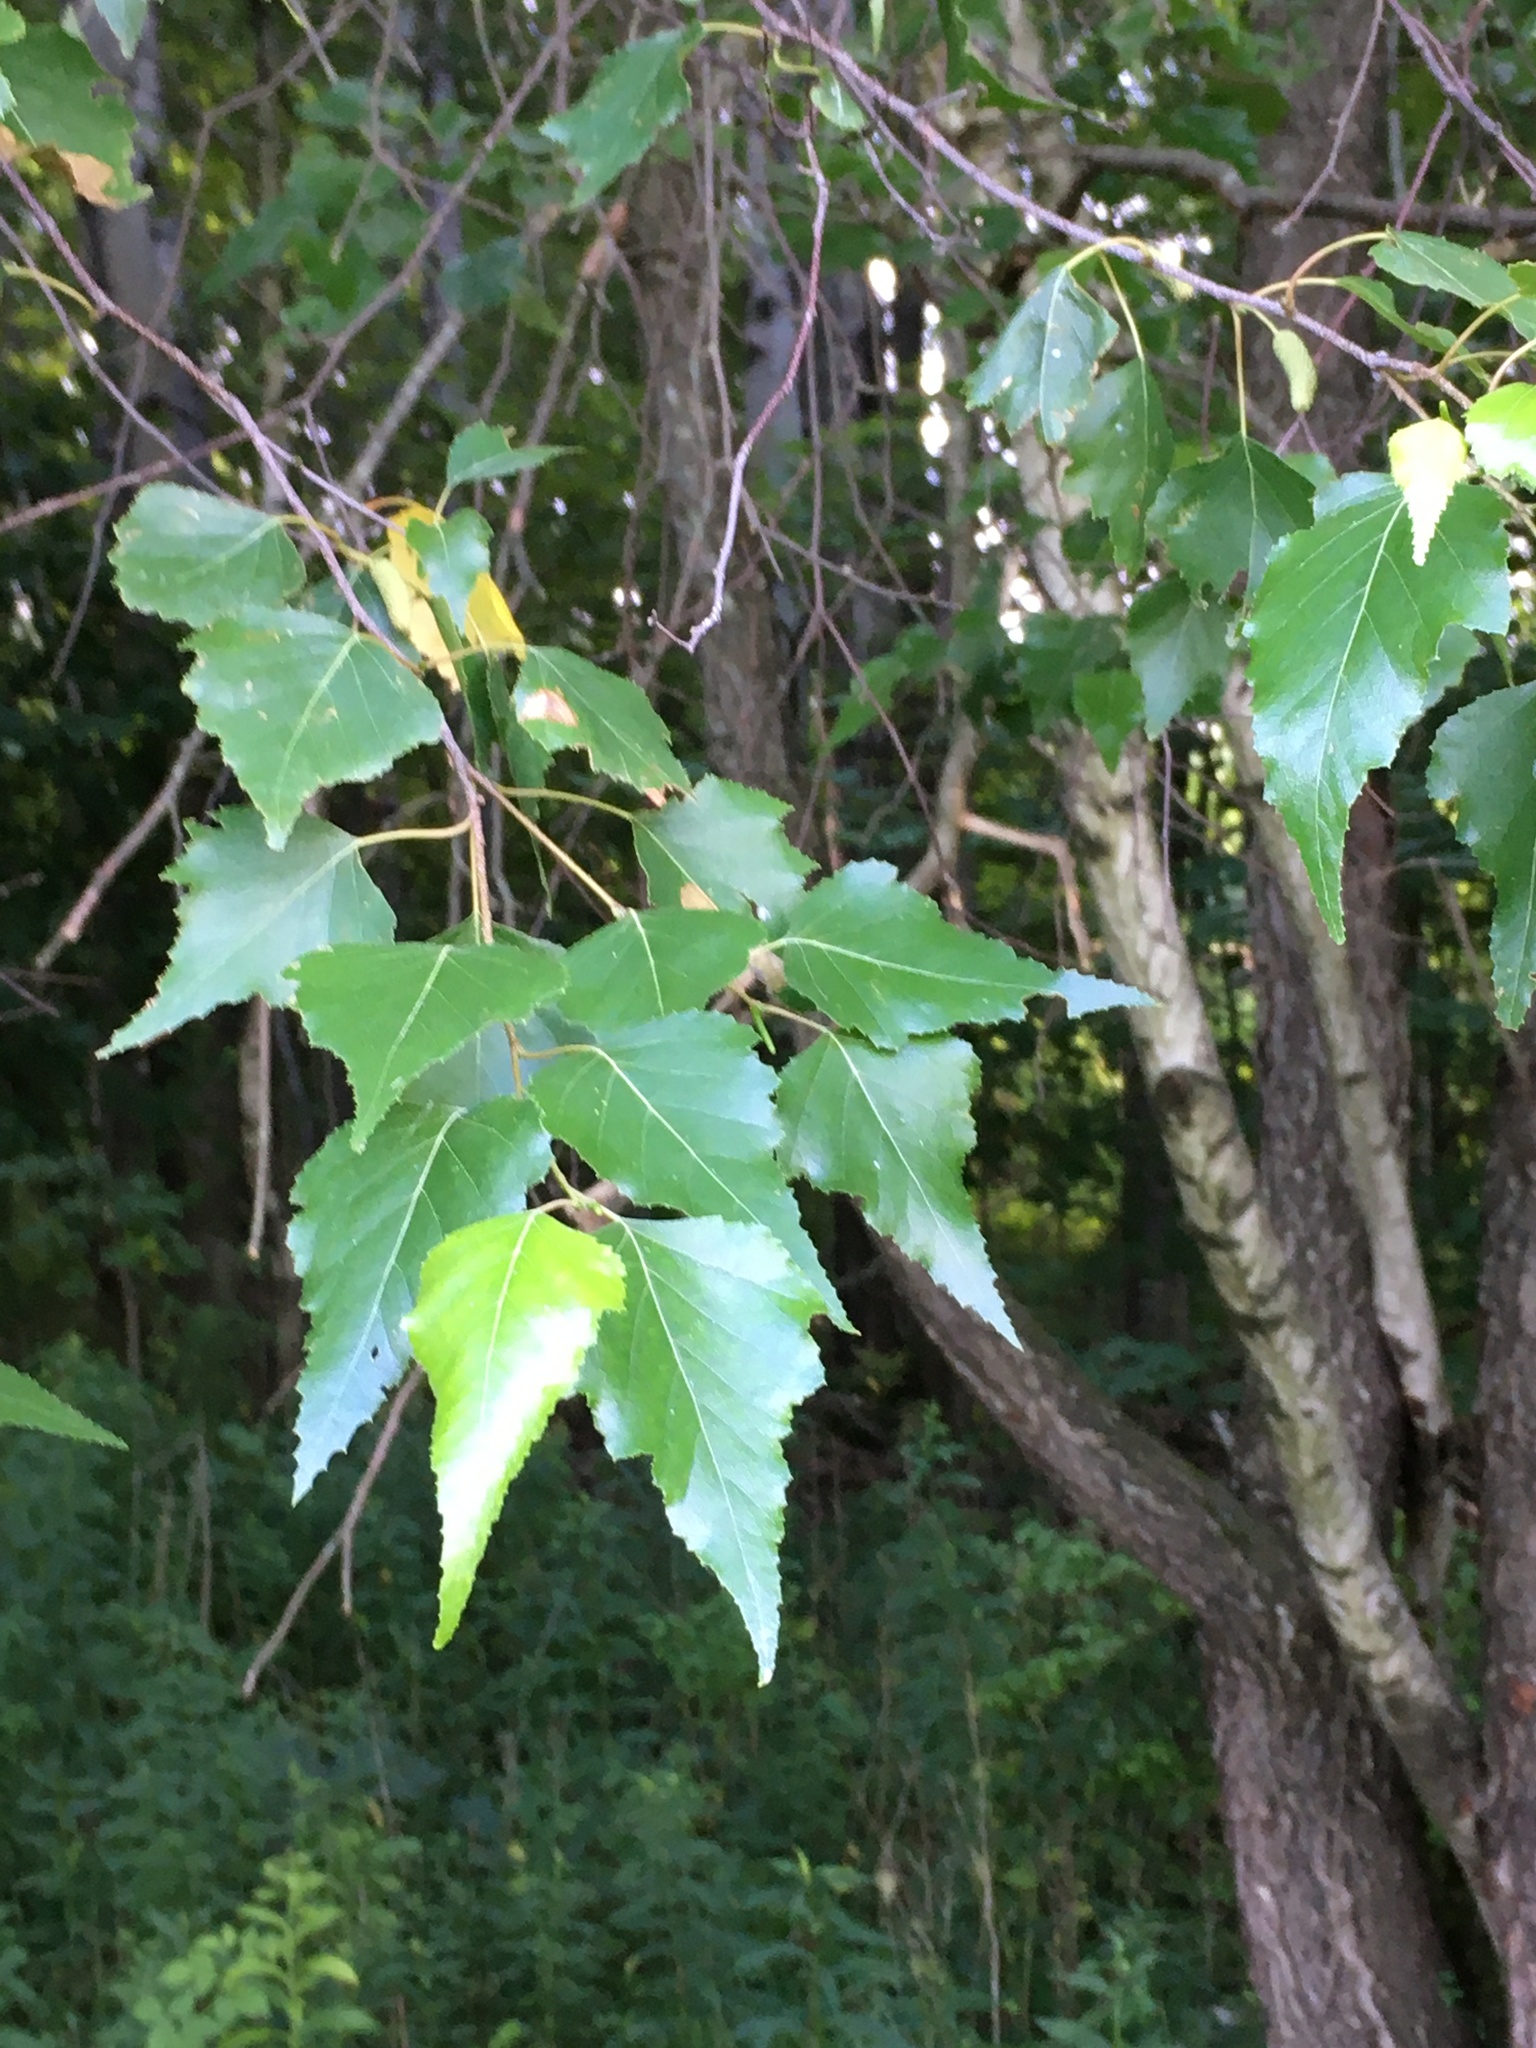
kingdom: Plantae
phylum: Tracheophyta
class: Magnoliopsida
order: Fagales
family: Betulaceae
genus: Betula
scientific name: Betula populifolia
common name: Fire birch
